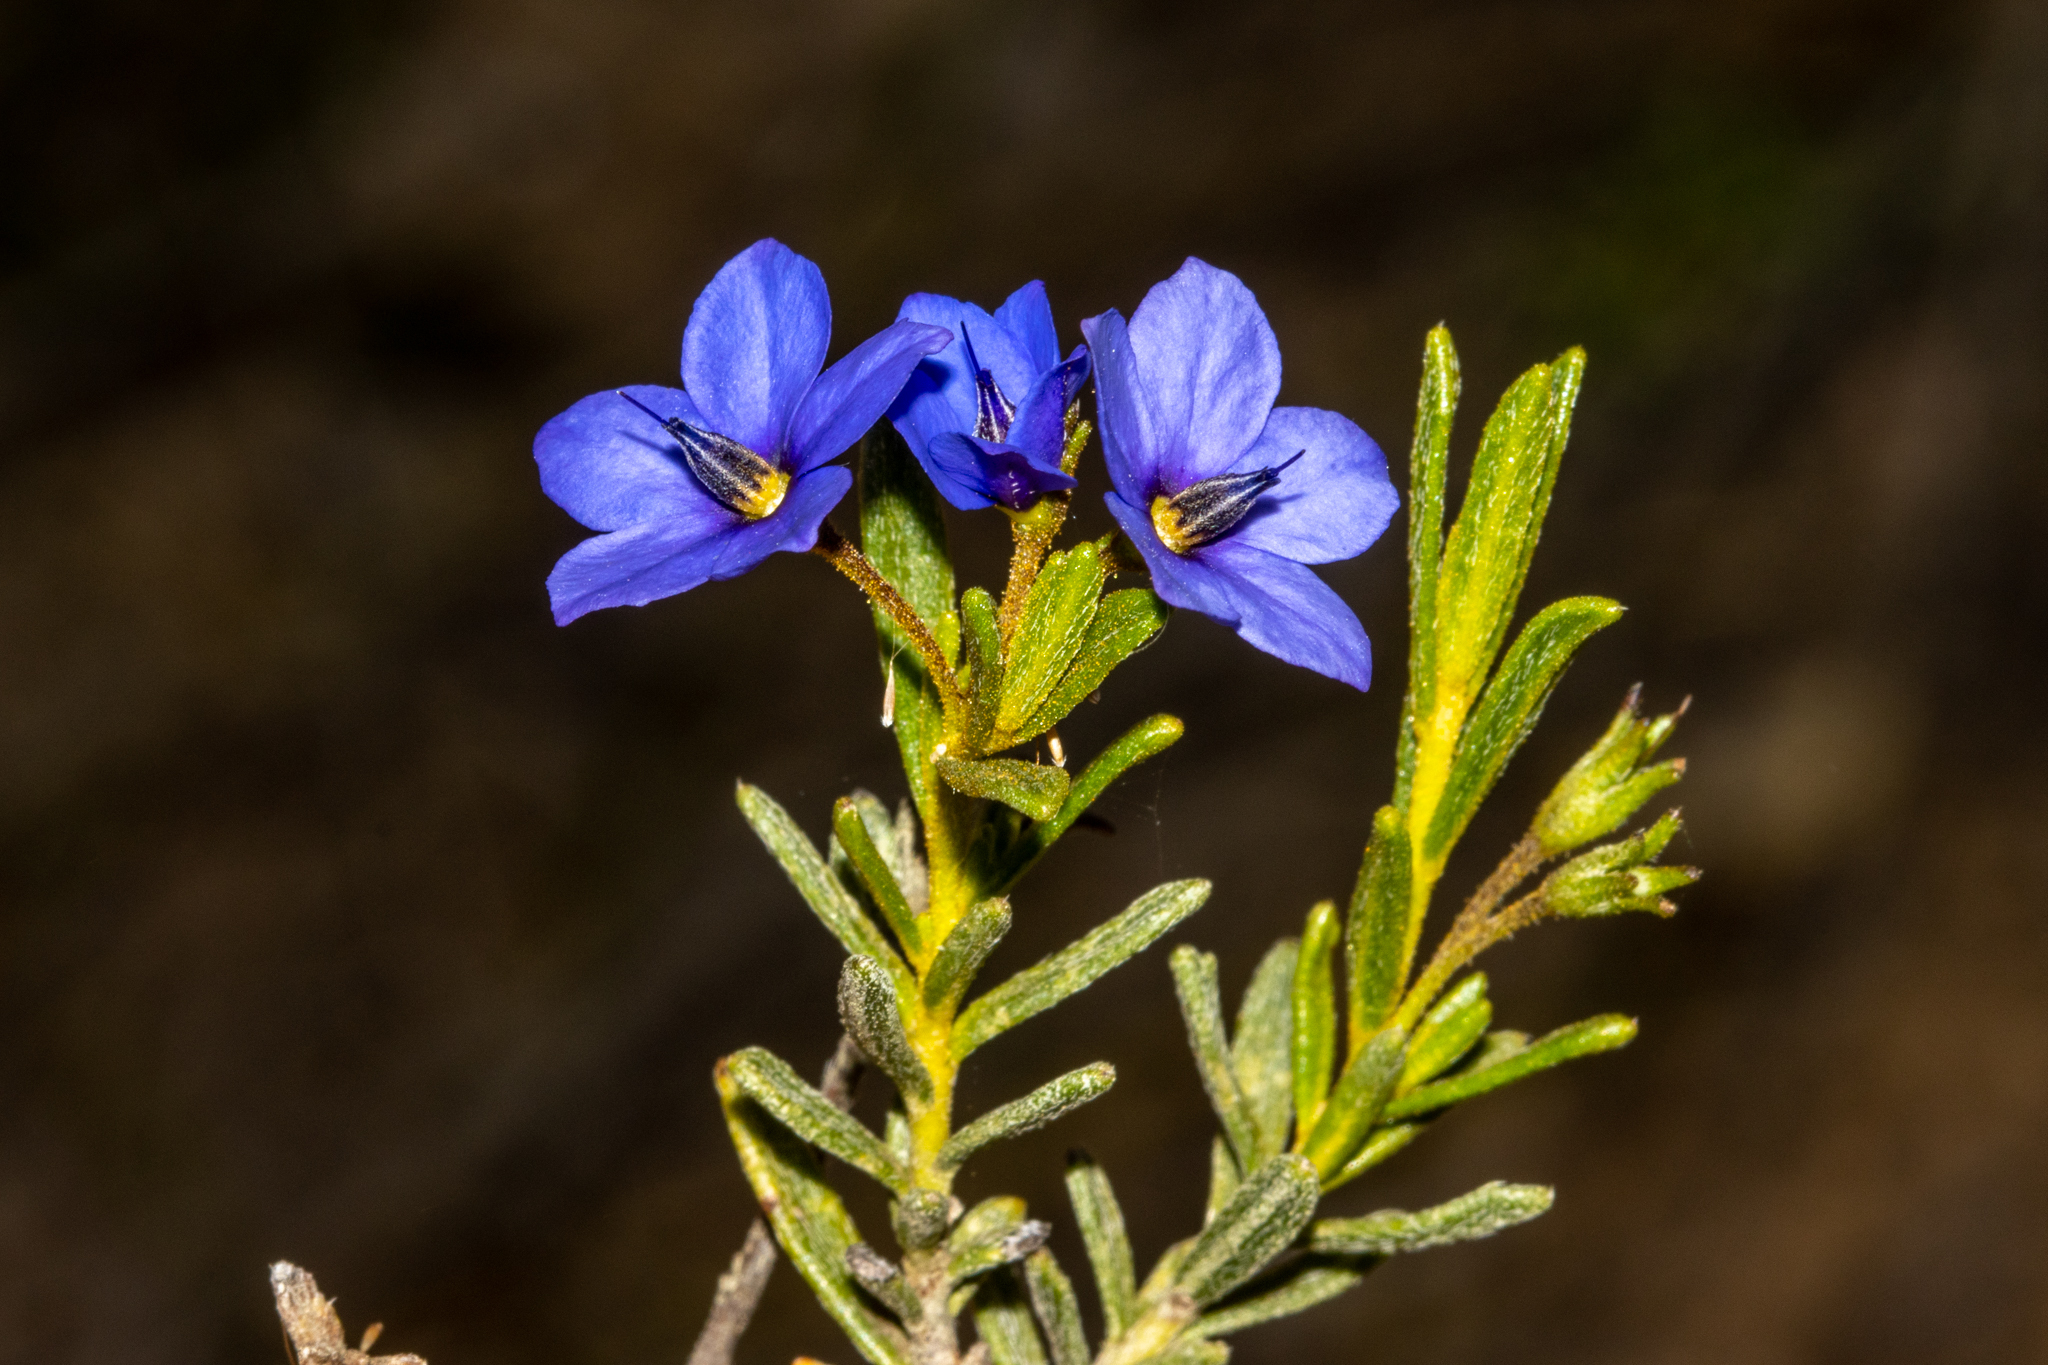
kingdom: Plantae
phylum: Tracheophyta
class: Magnoliopsida
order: Boraginales
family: Ehretiaceae
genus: Halgania
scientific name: Halgania cyanea
